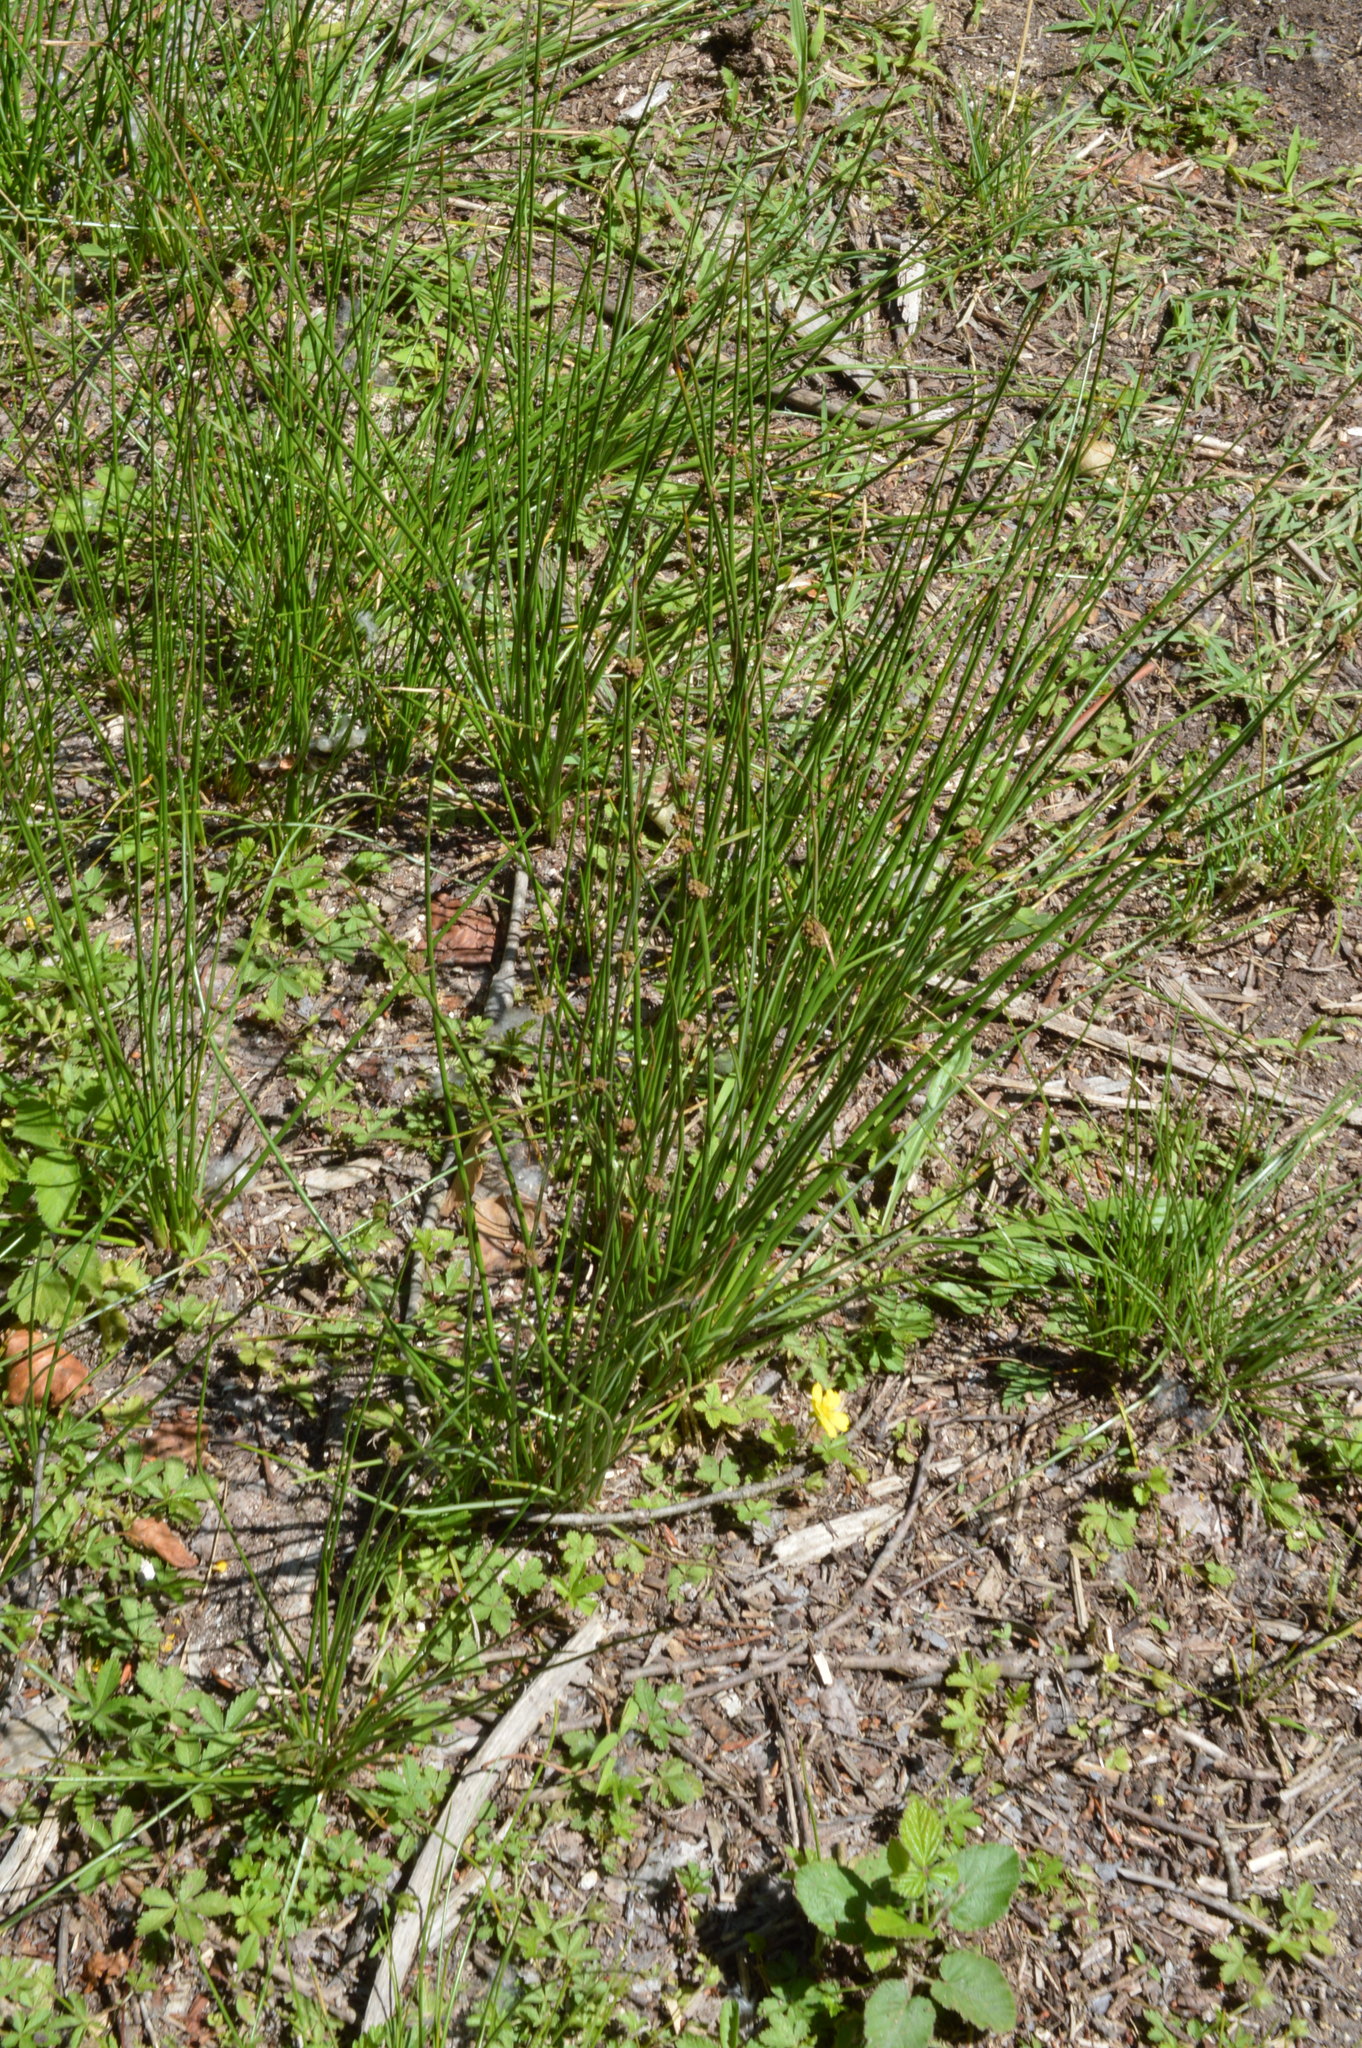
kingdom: Plantae
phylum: Tracheophyta
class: Liliopsida
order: Poales
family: Cyperaceae
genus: Scirpoides
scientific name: Scirpoides holoschoenus
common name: Round-headed club-rush
